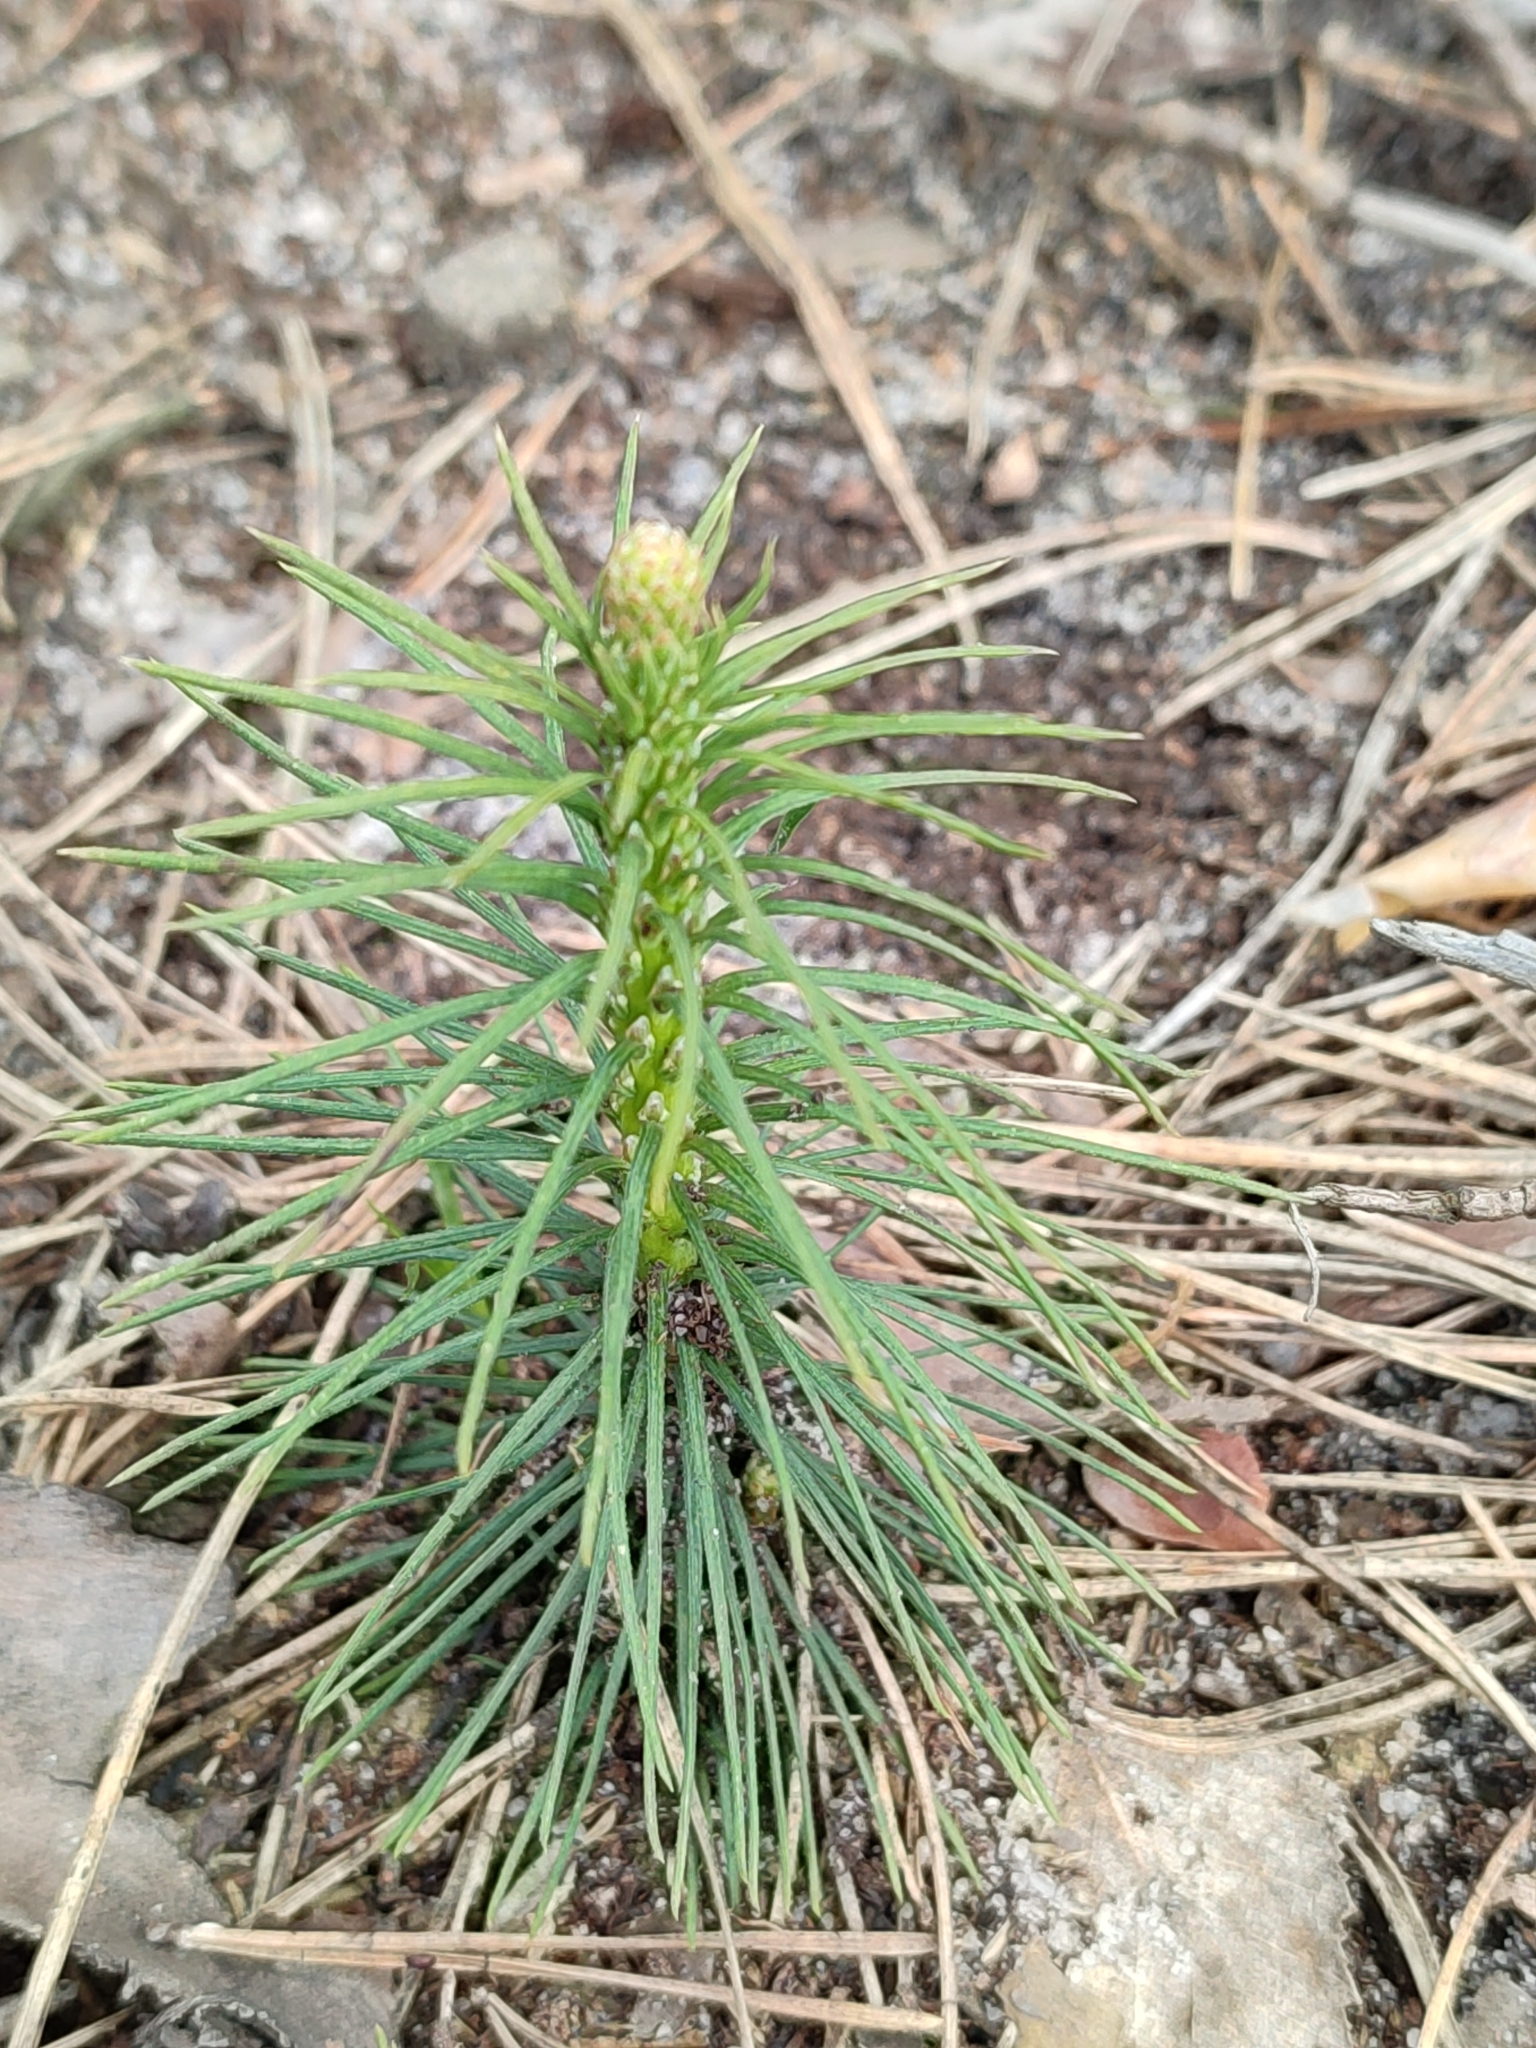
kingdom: Plantae
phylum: Tracheophyta
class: Pinopsida
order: Pinales
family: Pinaceae
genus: Pinus
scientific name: Pinus sylvestris
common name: Scots pine
